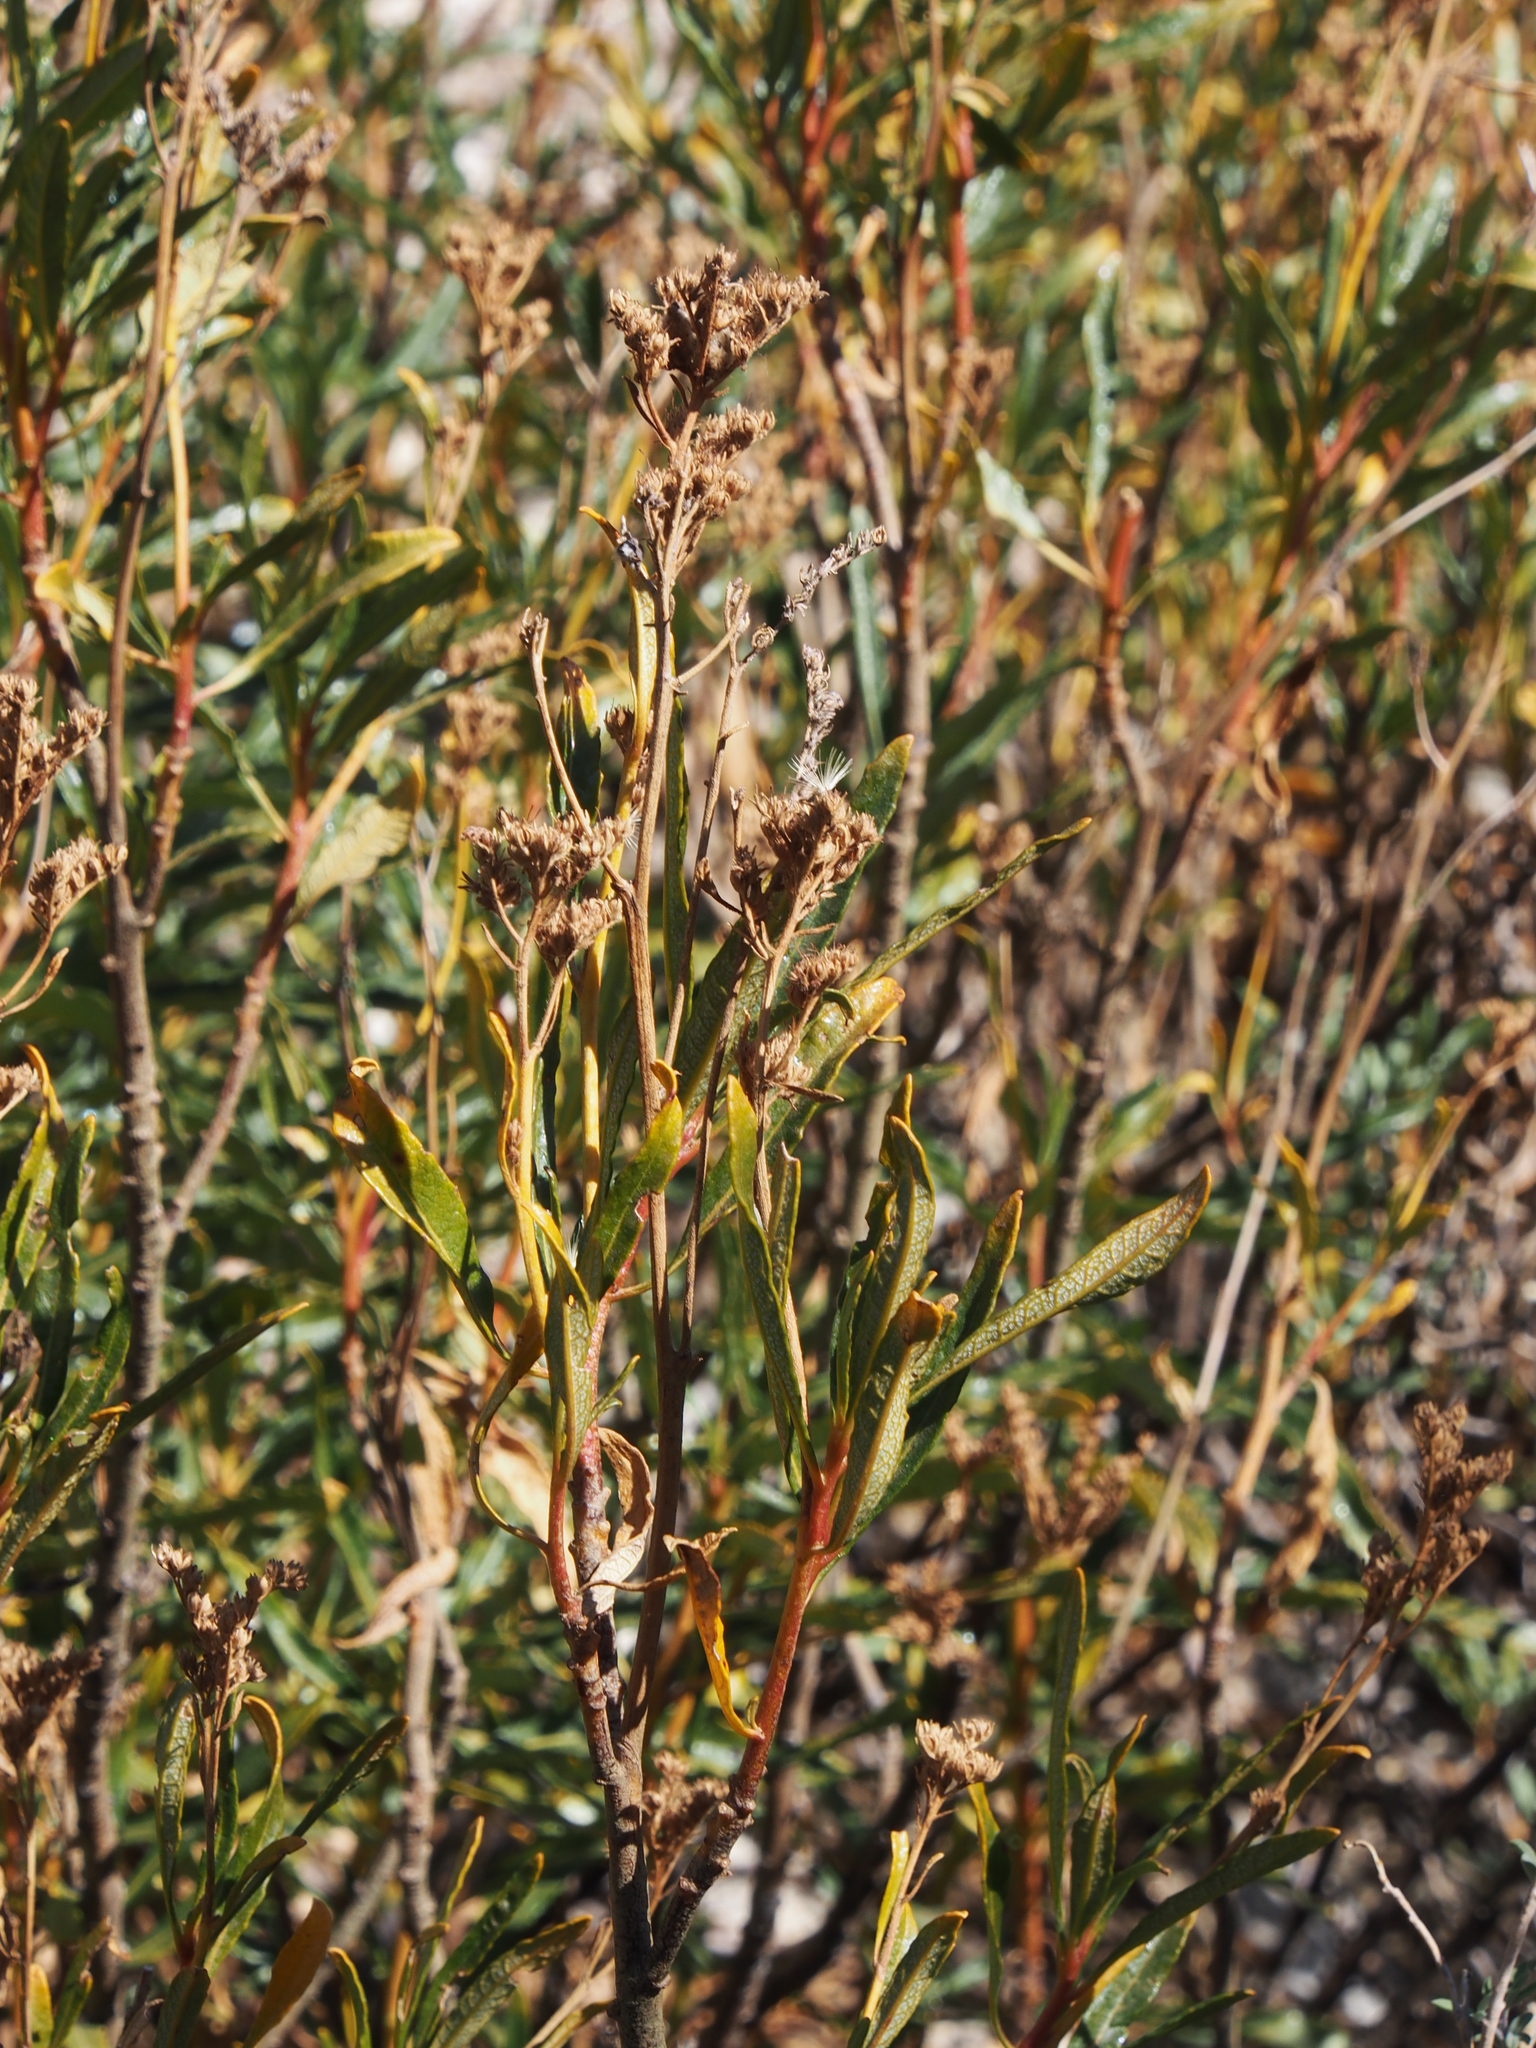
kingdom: Plantae
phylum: Tracheophyta
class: Magnoliopsida
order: Boraginales
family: Namaceae
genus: Eriodictyon
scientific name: Eriodictyon trichocalyx
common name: Hairy yerba-santa
